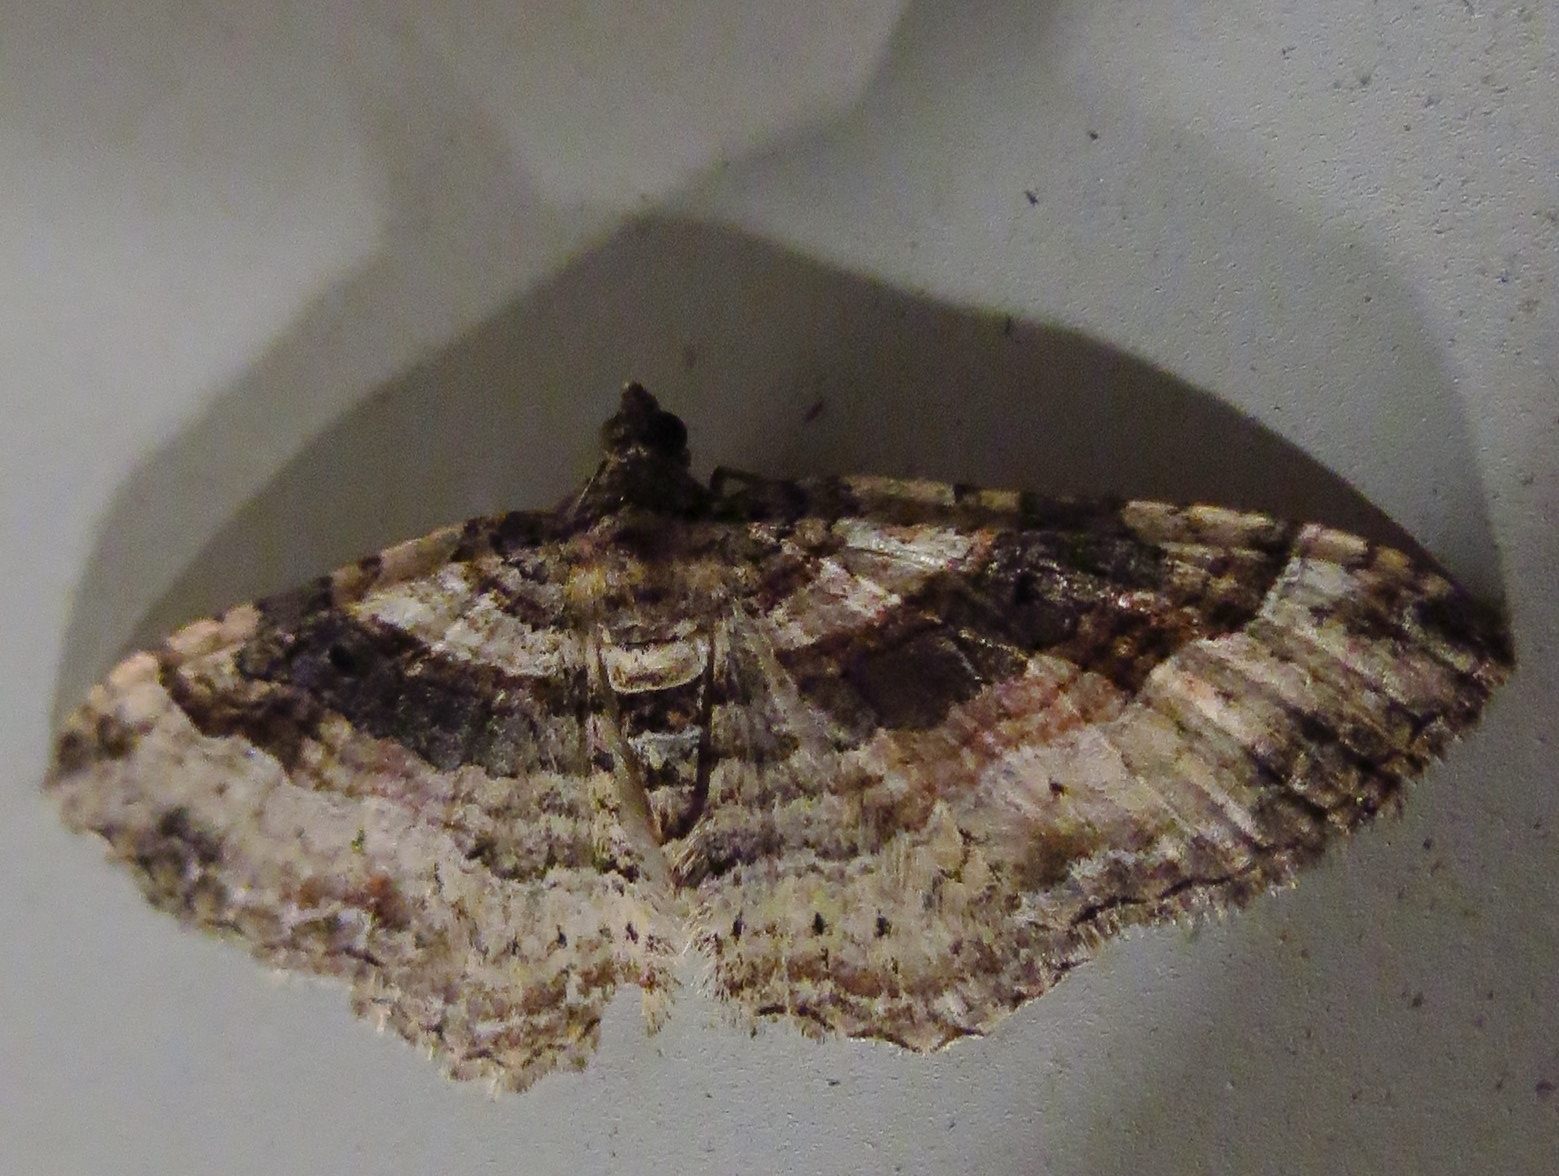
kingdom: Animalia
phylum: Arthropoda
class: Insecta
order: Lepidoptera
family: Geometridae
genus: Costaconvexa
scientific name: Costaconvexa centrostrigaria
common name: Bent-line carpet
